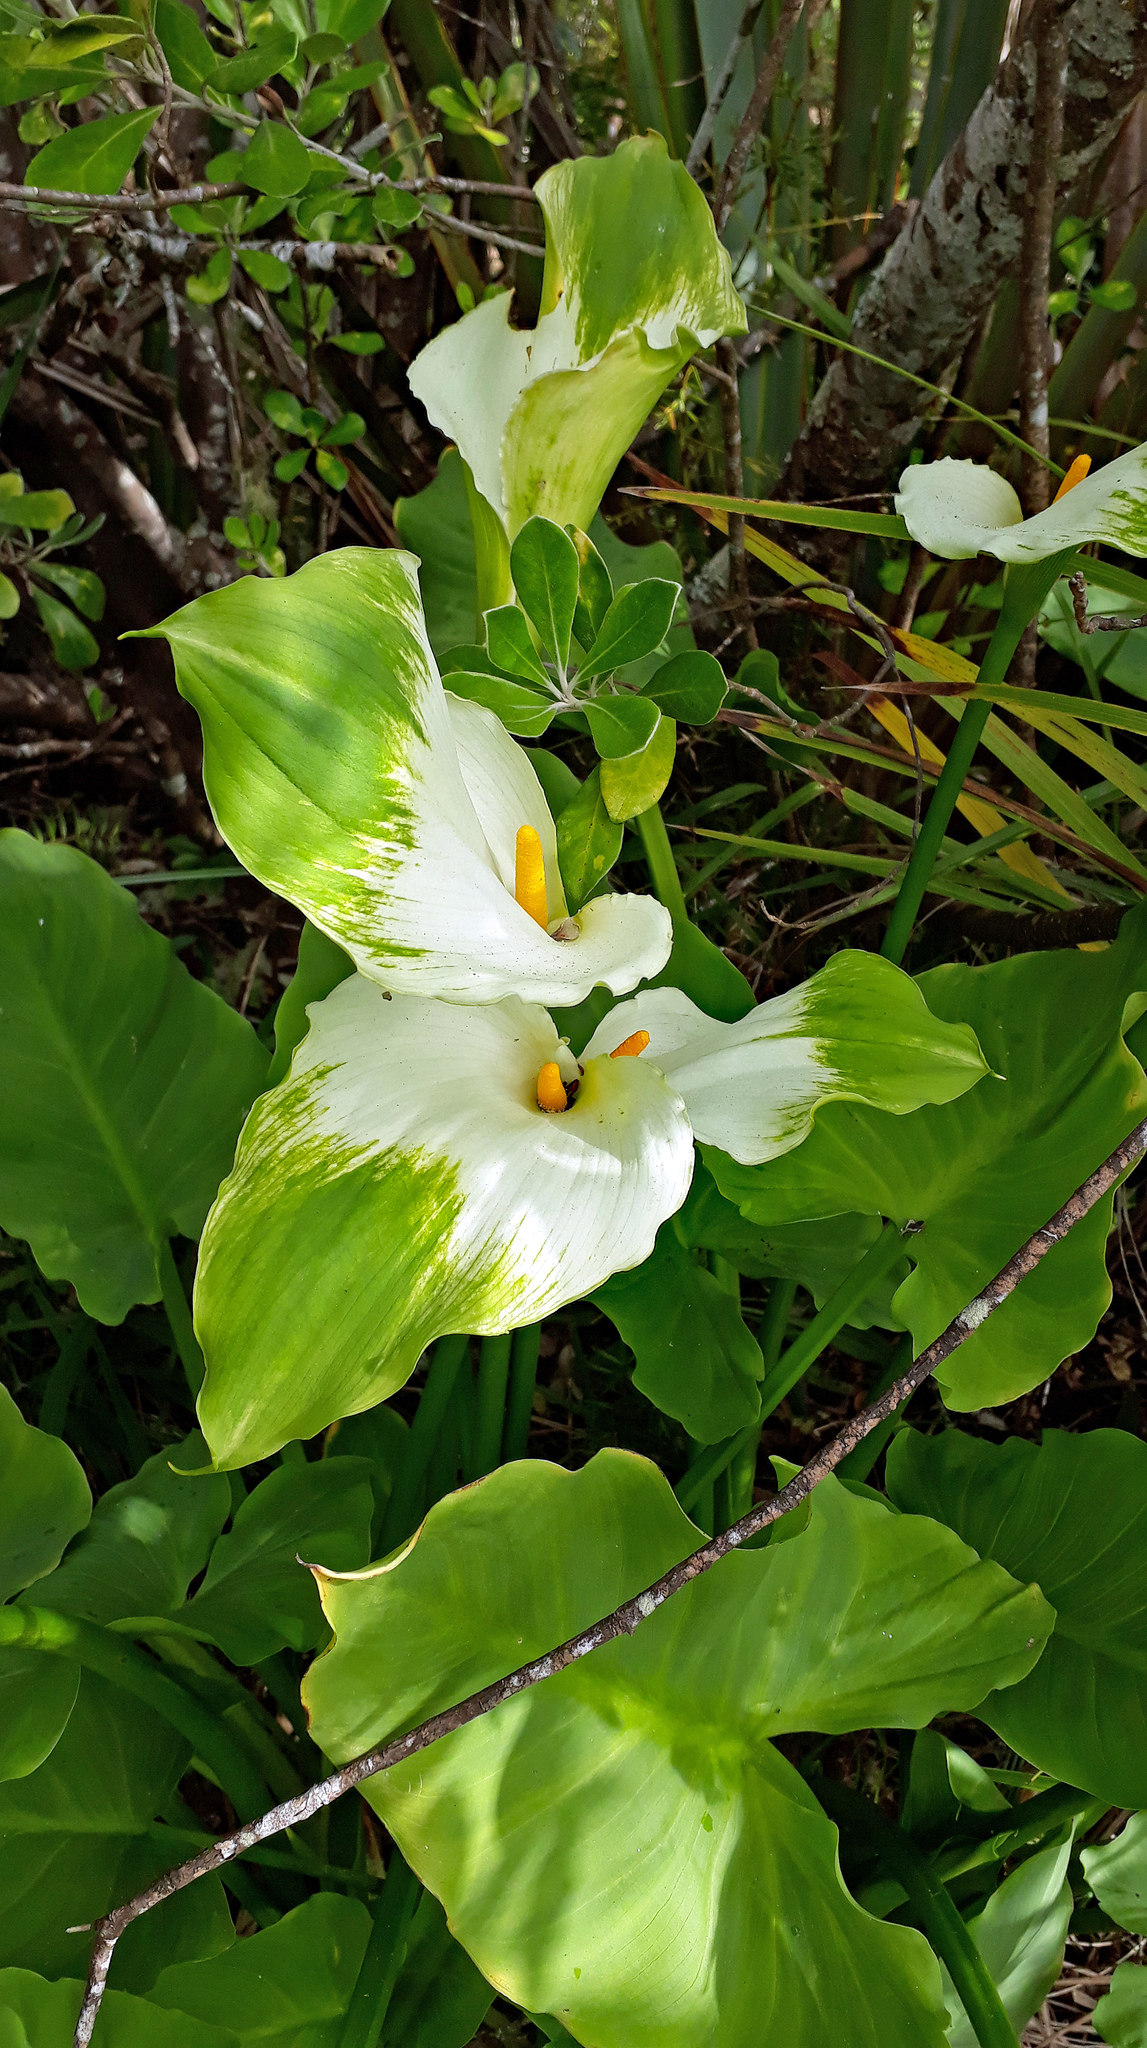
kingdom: Plantae
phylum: Tracheophyta
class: Liliopsida
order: Alismatales
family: Araceae
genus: Zantedeschia
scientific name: Zantedeschia aethiopica
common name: Altar-lily
